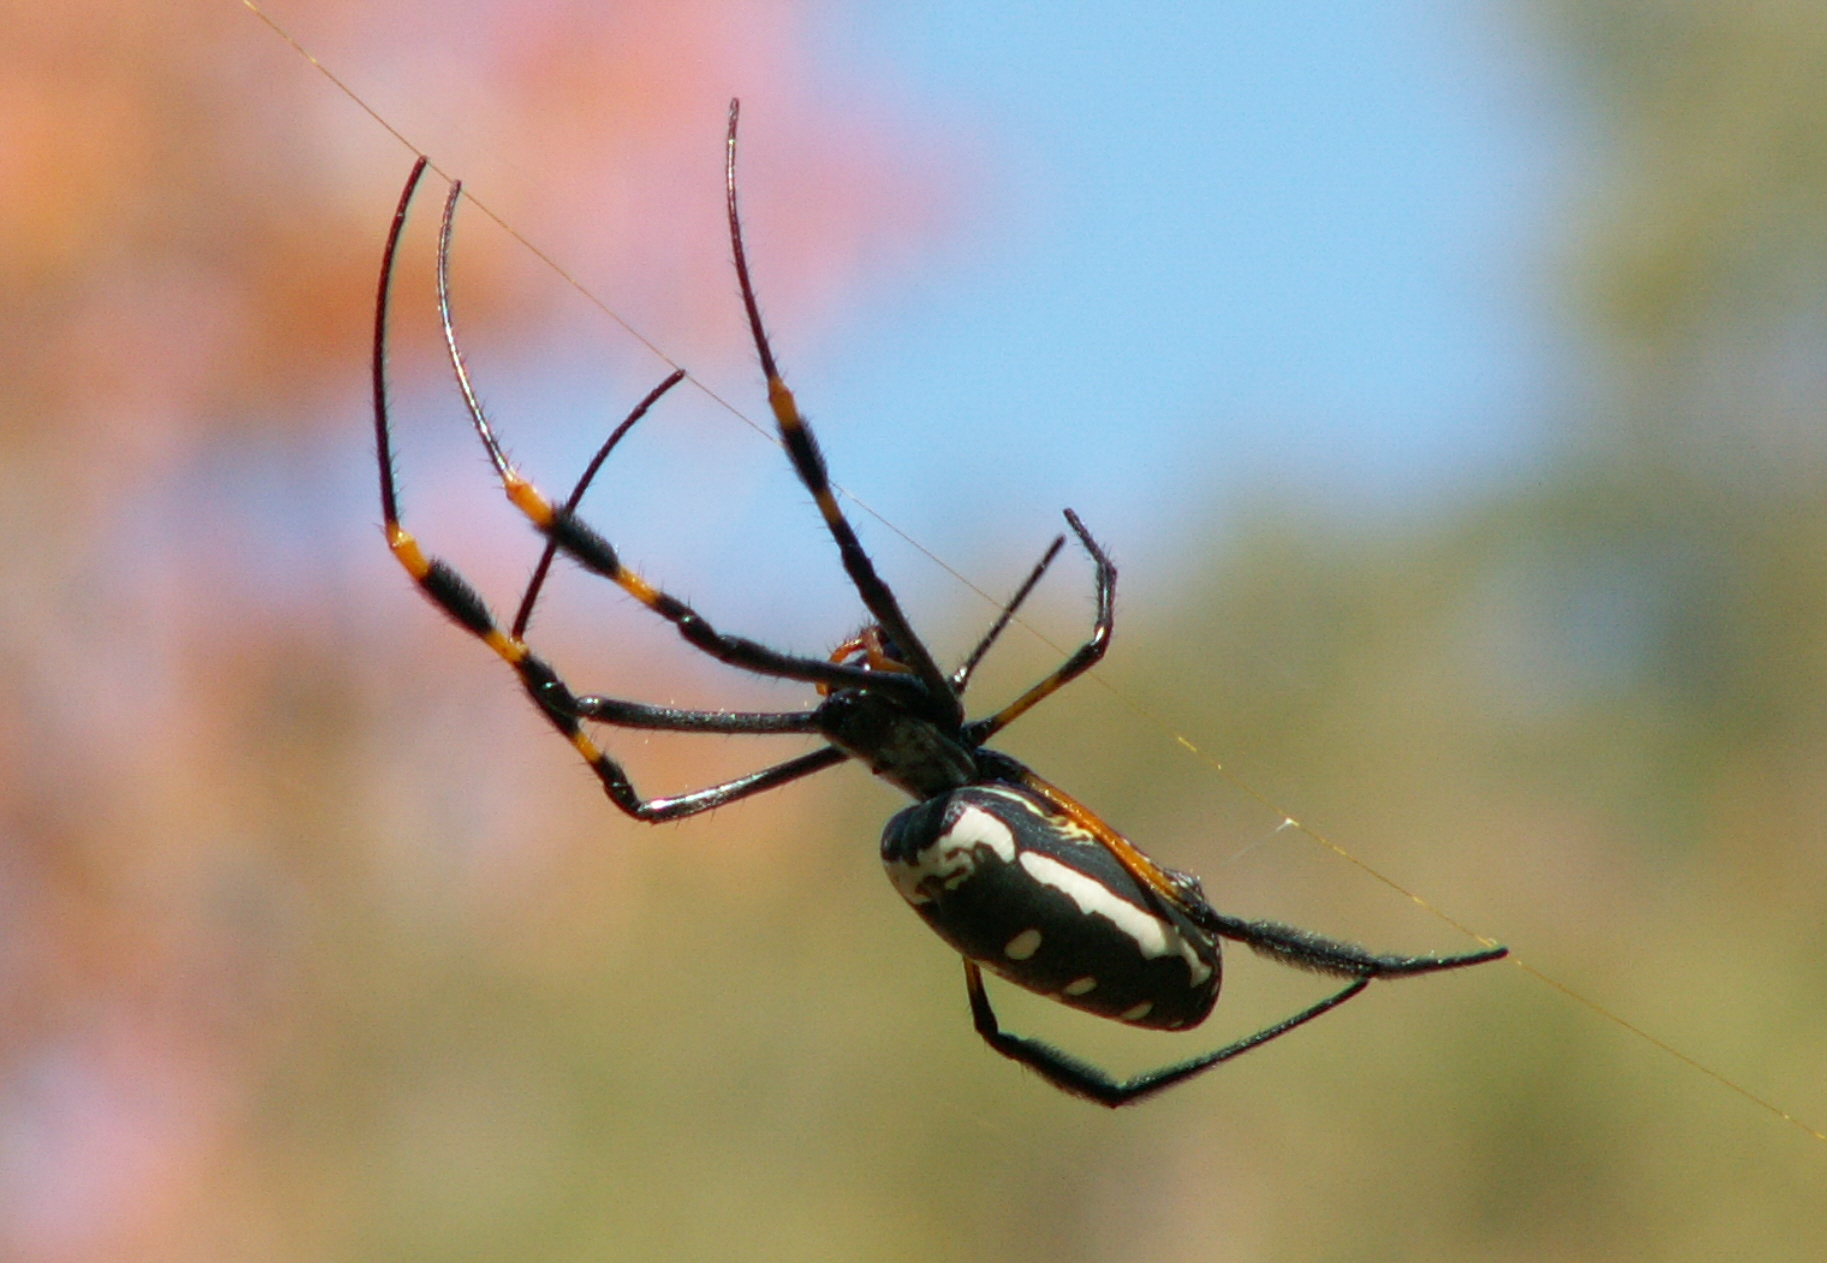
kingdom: Animalia
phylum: Arthropoda
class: Arachnida
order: Araneae
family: Araneidae
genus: Trichonephila
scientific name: Trichonephila senegalensis
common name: Banded golden orb weaver
